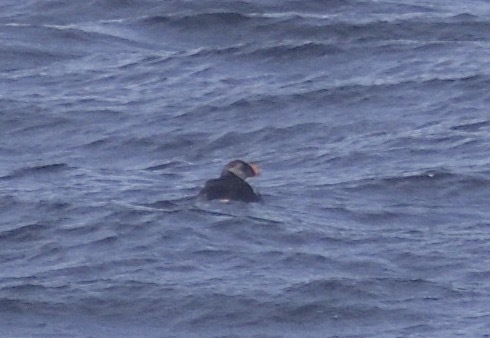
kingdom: Animalia
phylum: Chordata
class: Aves
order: Charadriiformes
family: Alcidae
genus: Fratercula
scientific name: Fratercula arctica
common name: Atlantic puffin
